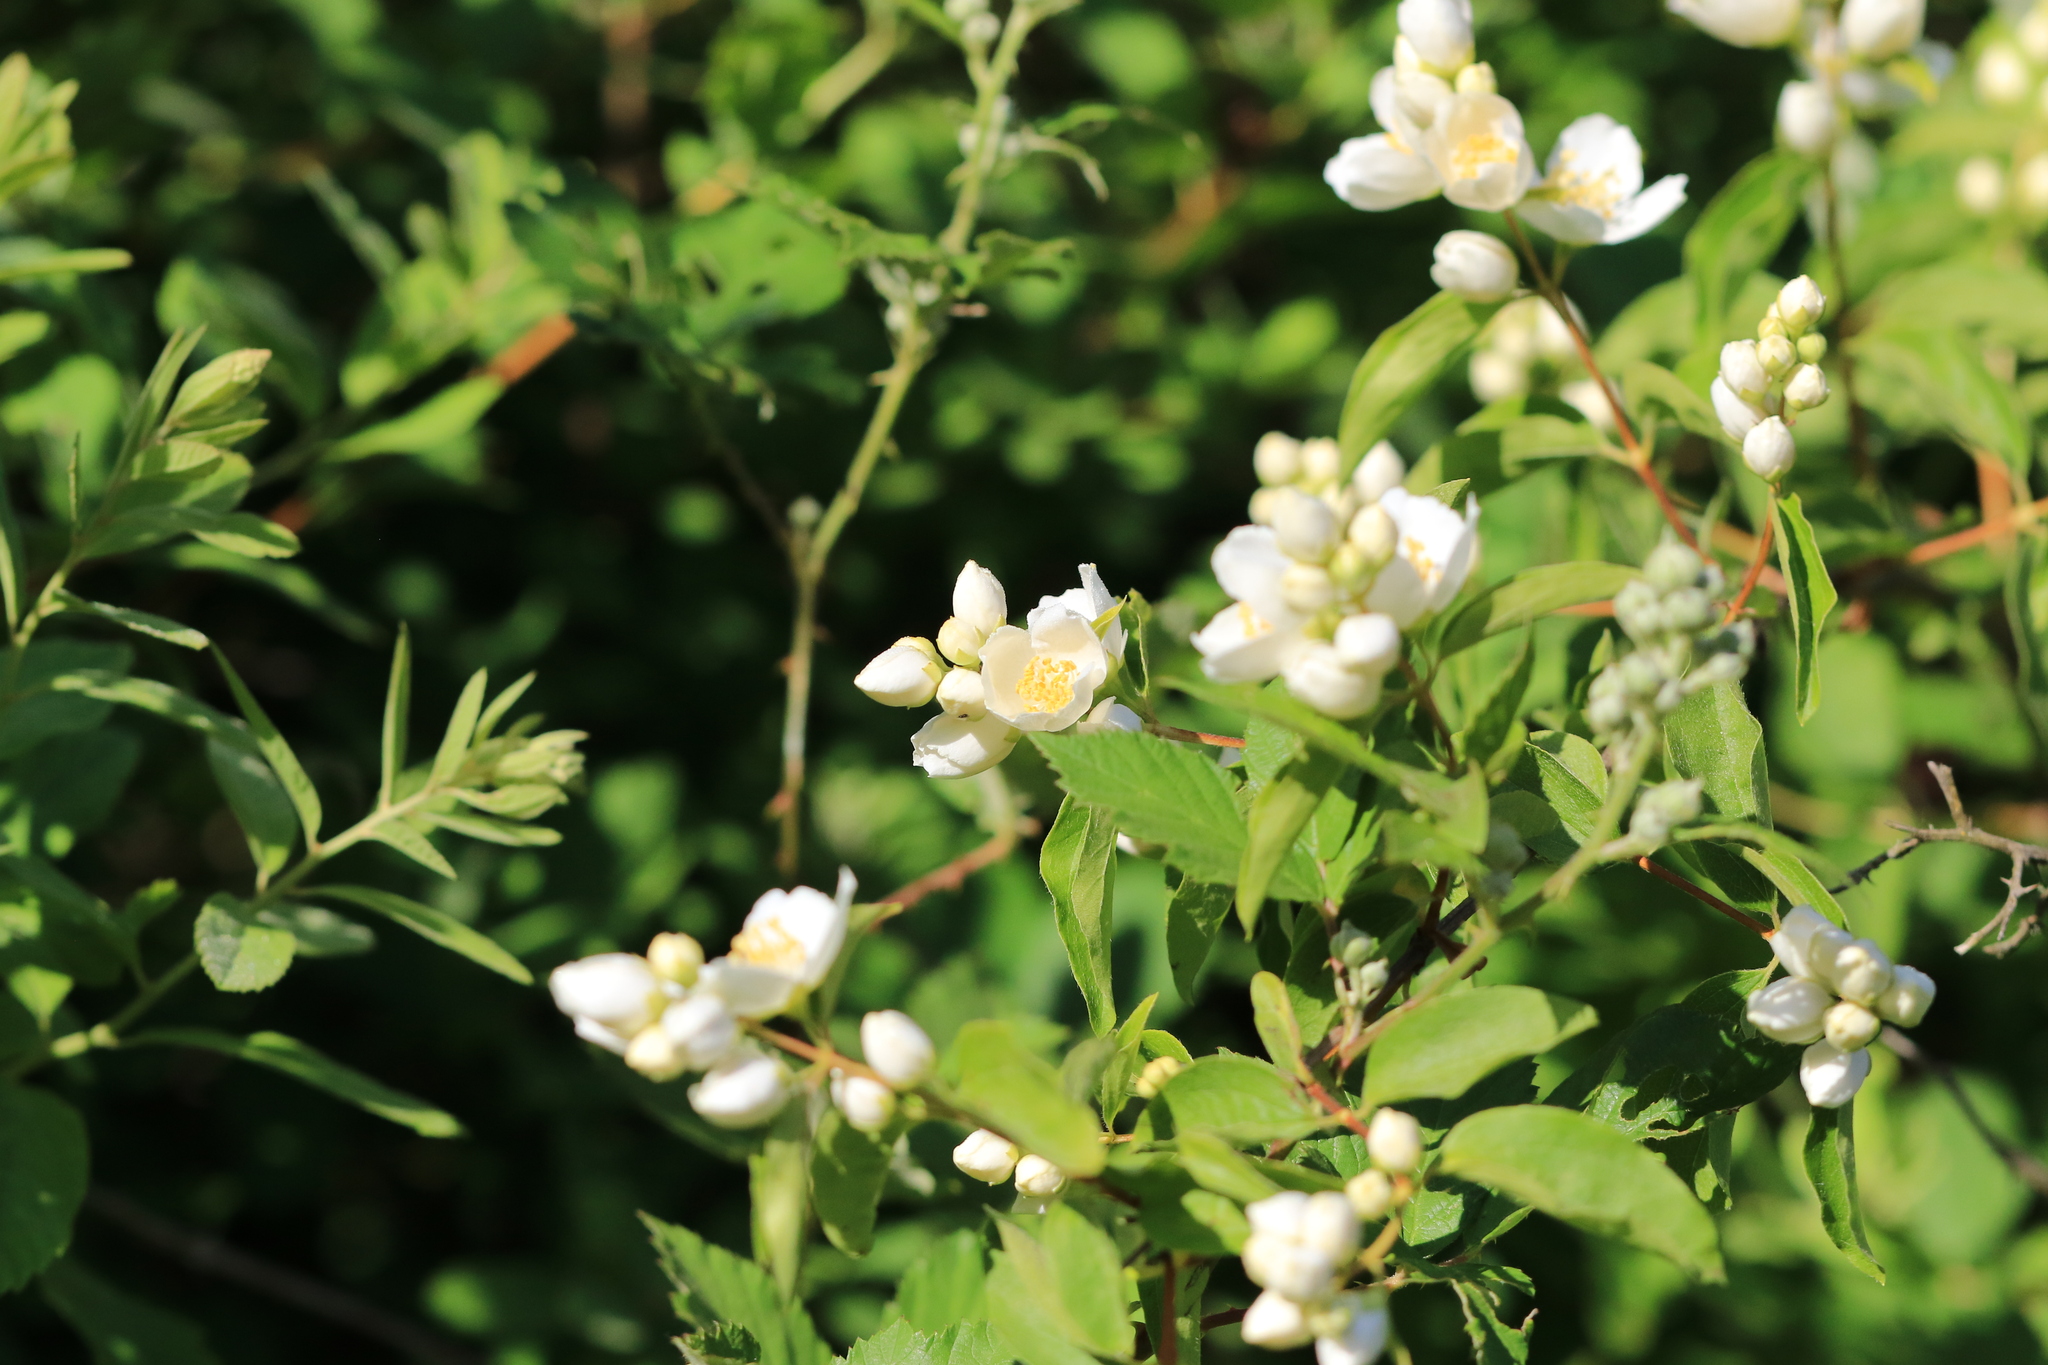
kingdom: Plantae
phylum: Tracheophyta
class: Magnoliopsida
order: Cornales
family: Hydrangeaceae
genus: Philadelphus
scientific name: Philadelphus lewisii
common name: Lewis's mock orange
